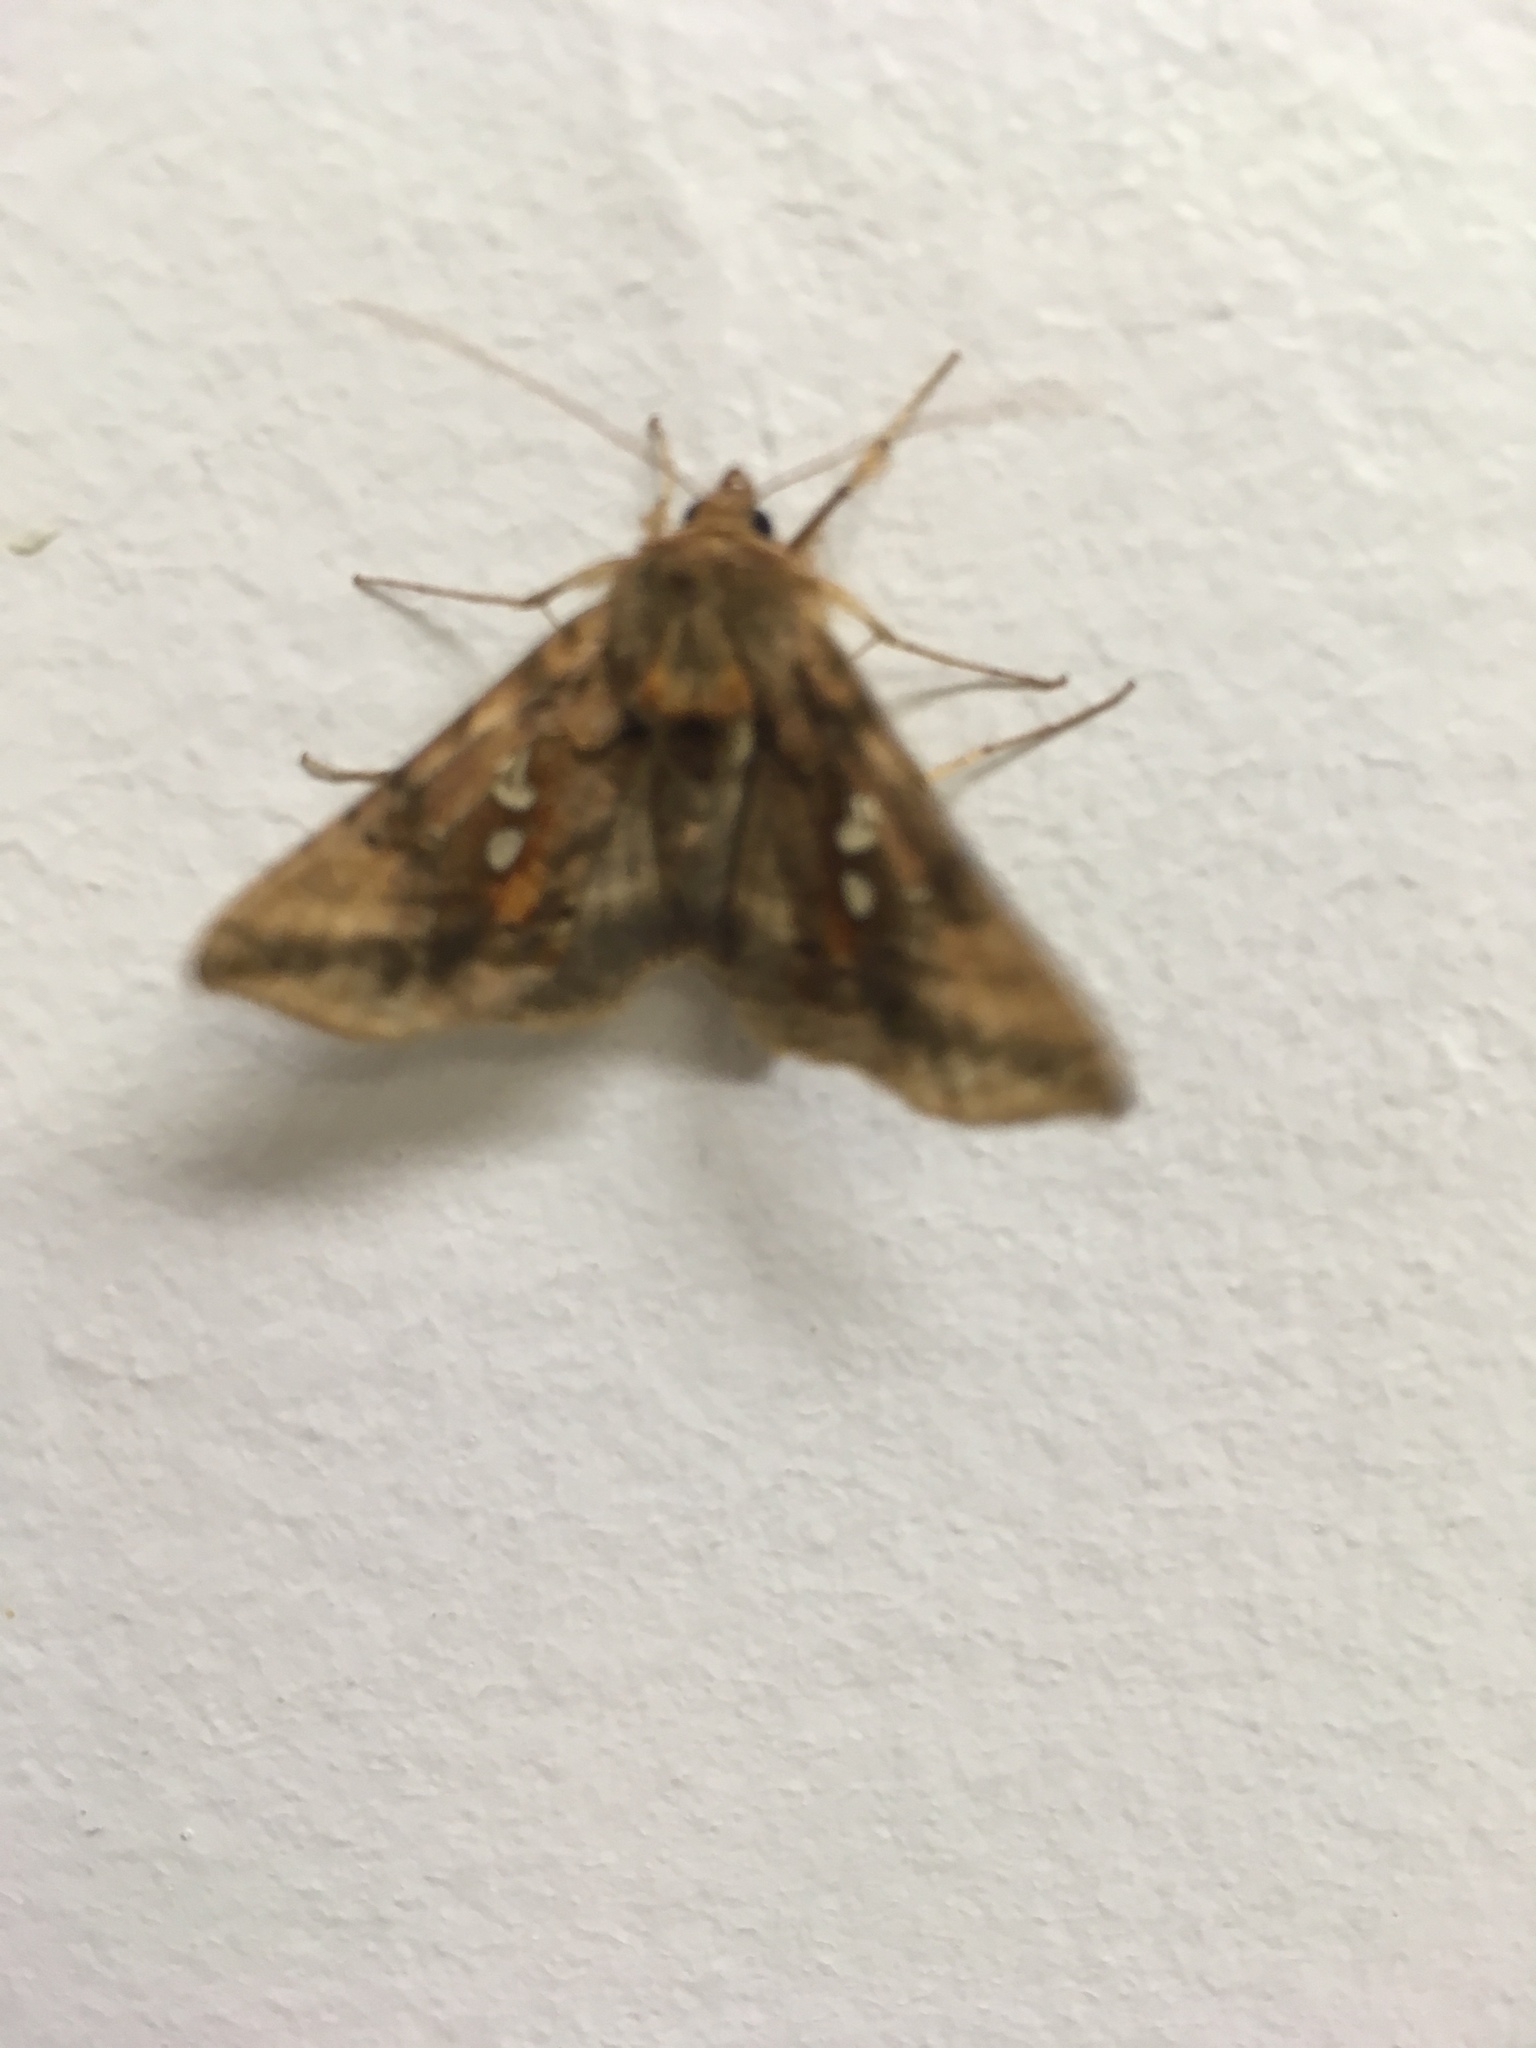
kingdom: Animalia
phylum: Arthropoda
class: Insecta
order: Lepidoptera
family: Noctuidae
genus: Autographa
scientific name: Autographa bimaculata
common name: Double-spotted spangle
